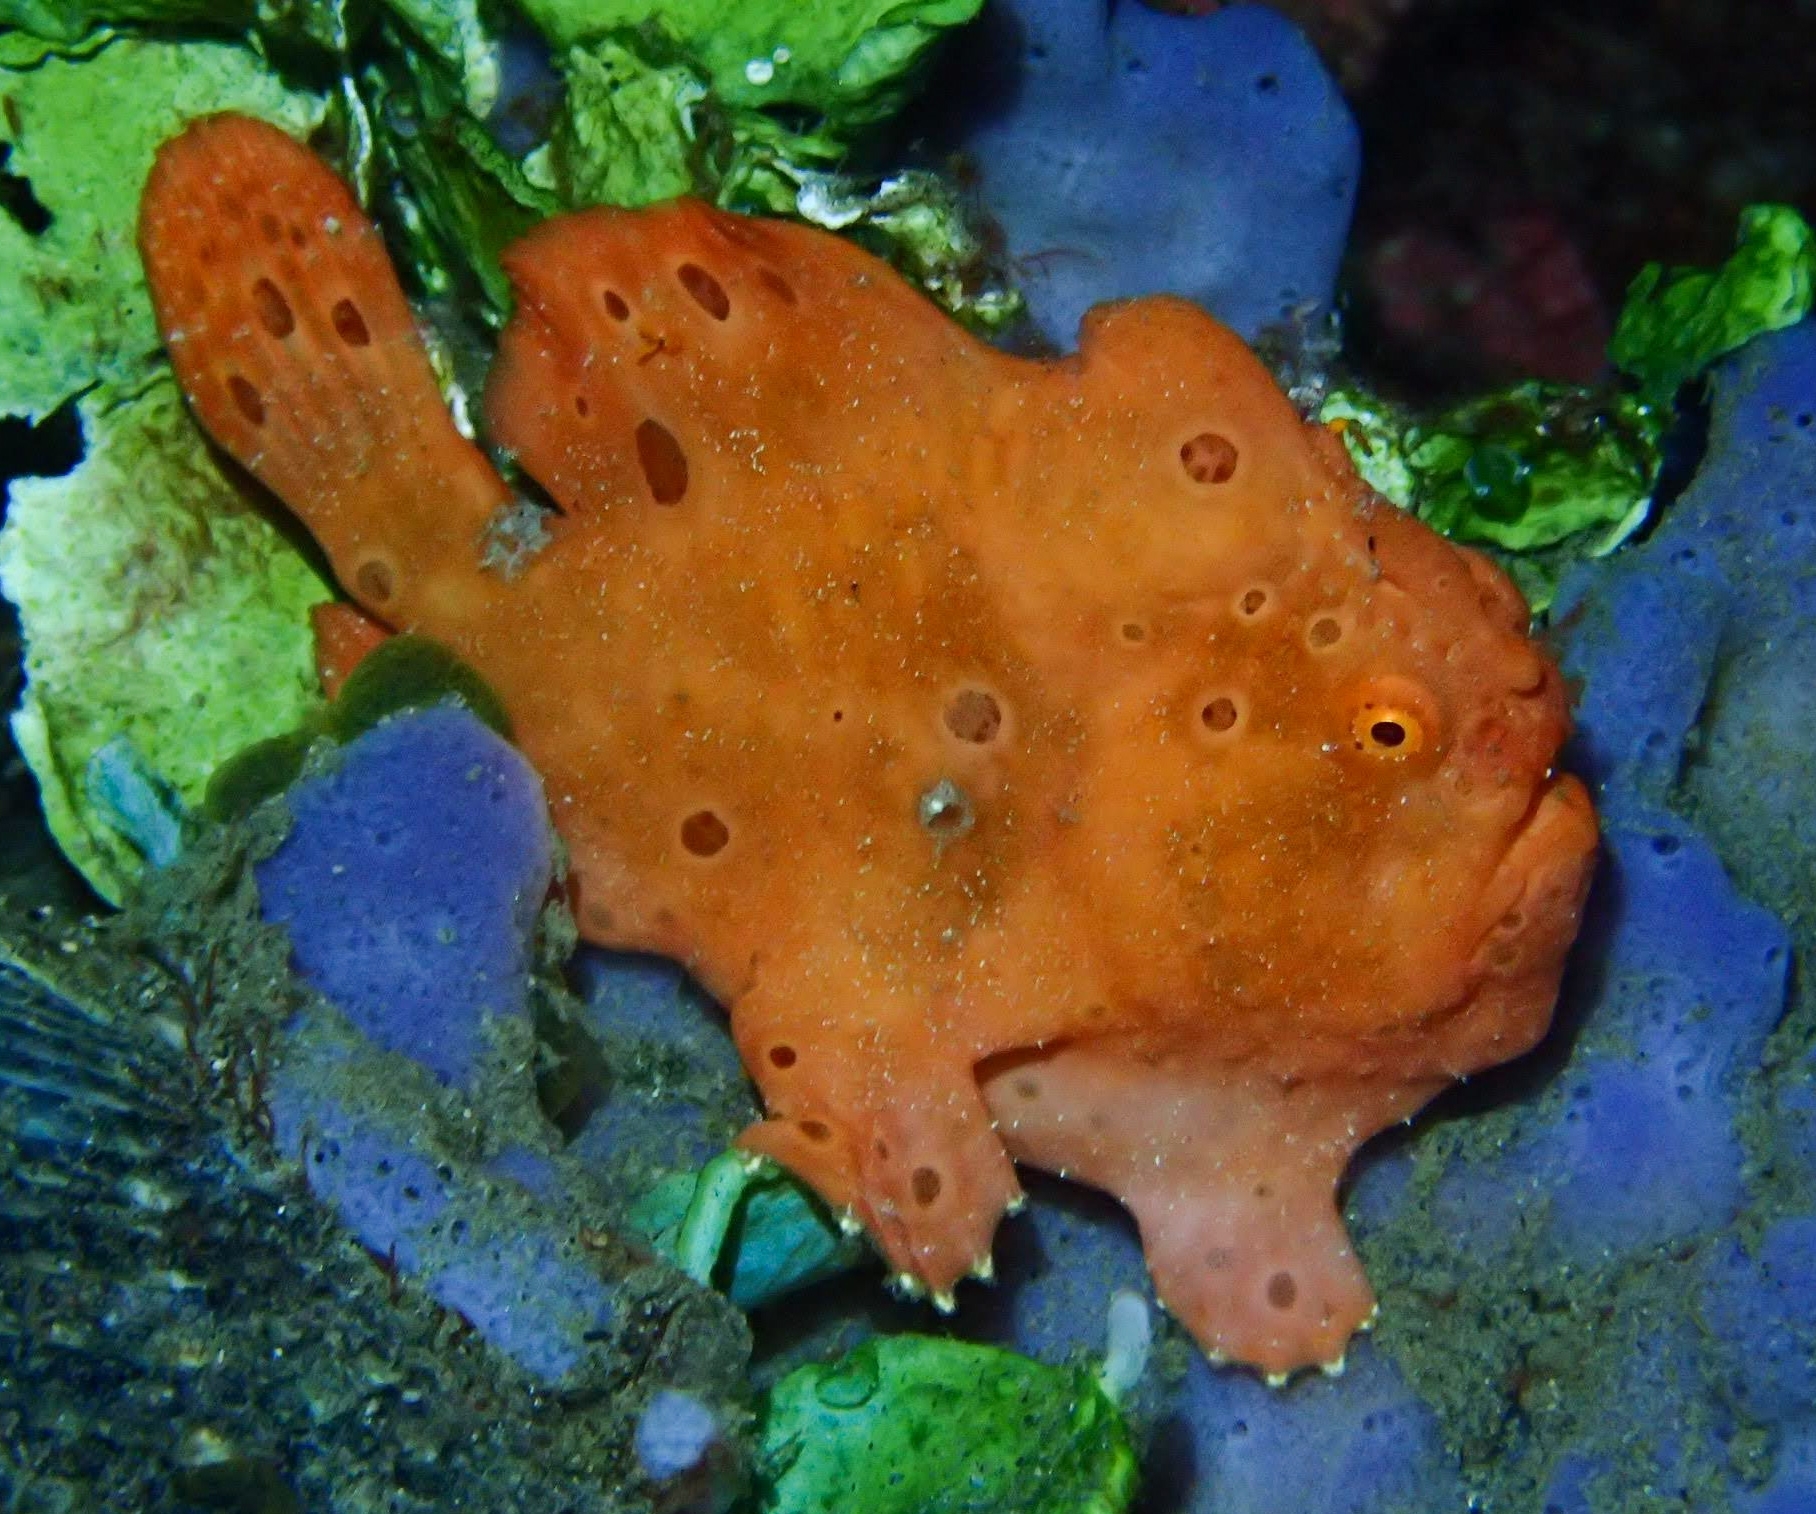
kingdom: Animalia
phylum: Chordata
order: Lophiiformes
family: Antennariidae
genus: Antennarius
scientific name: Antennarius pictus
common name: Painted frogfish
